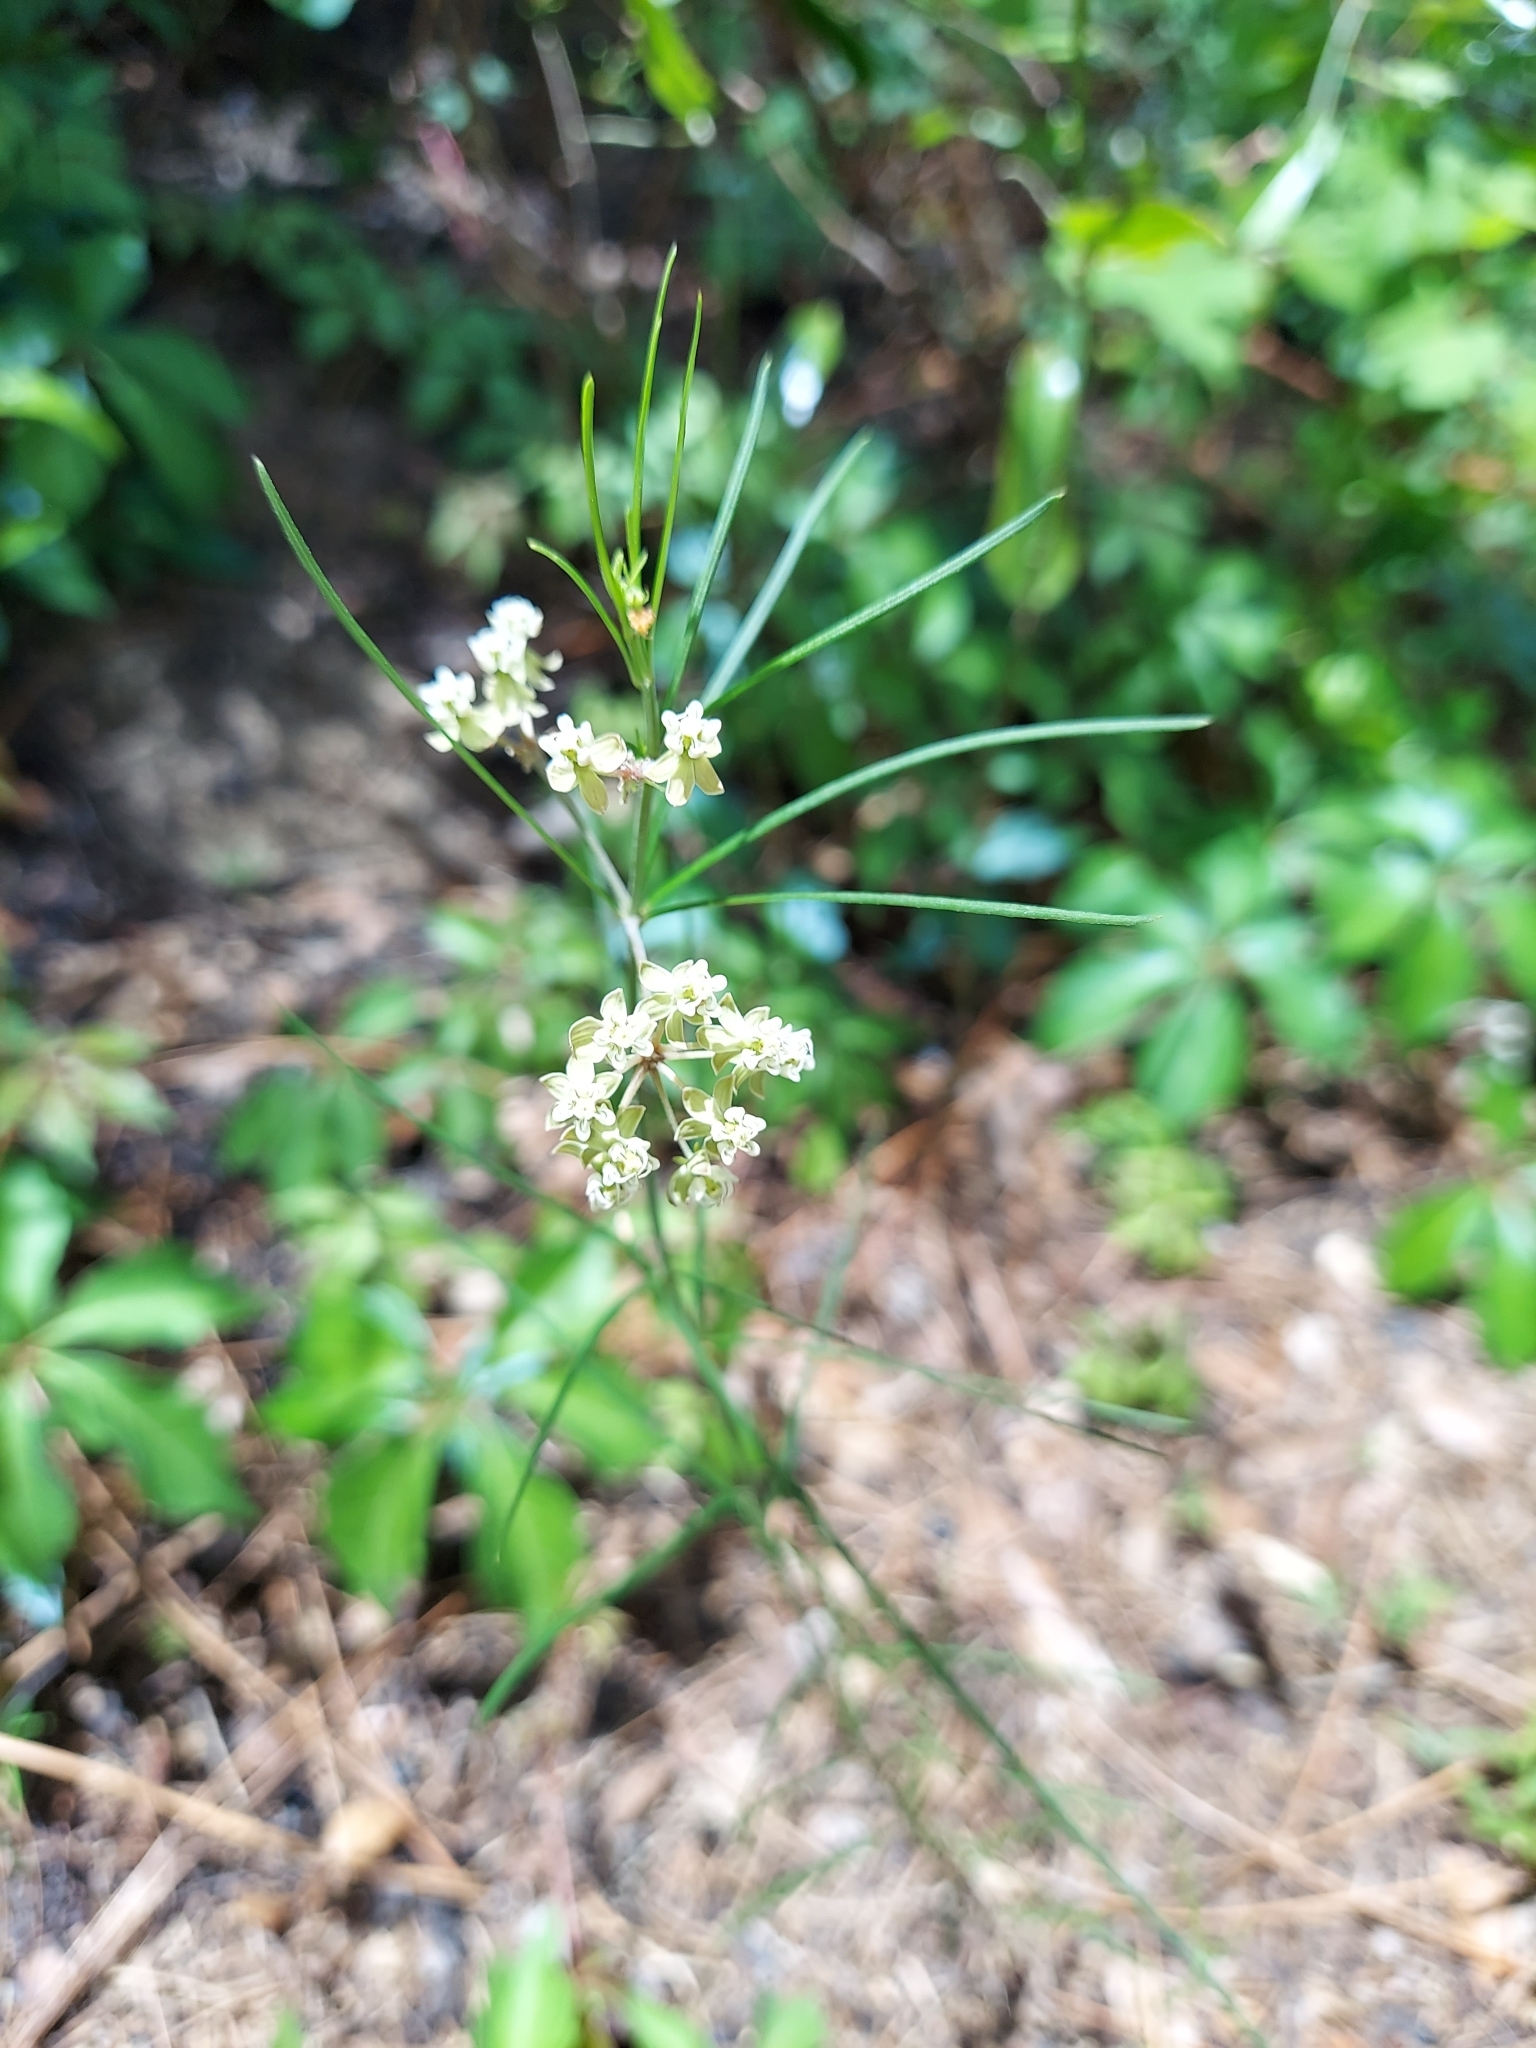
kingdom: Plantae
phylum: Tracheophyta
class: Magnoliopsida
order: Gentianales
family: Apocynaceae
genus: Asclepias
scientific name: Asclepias verticillata
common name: Eastern whorled milkweed
